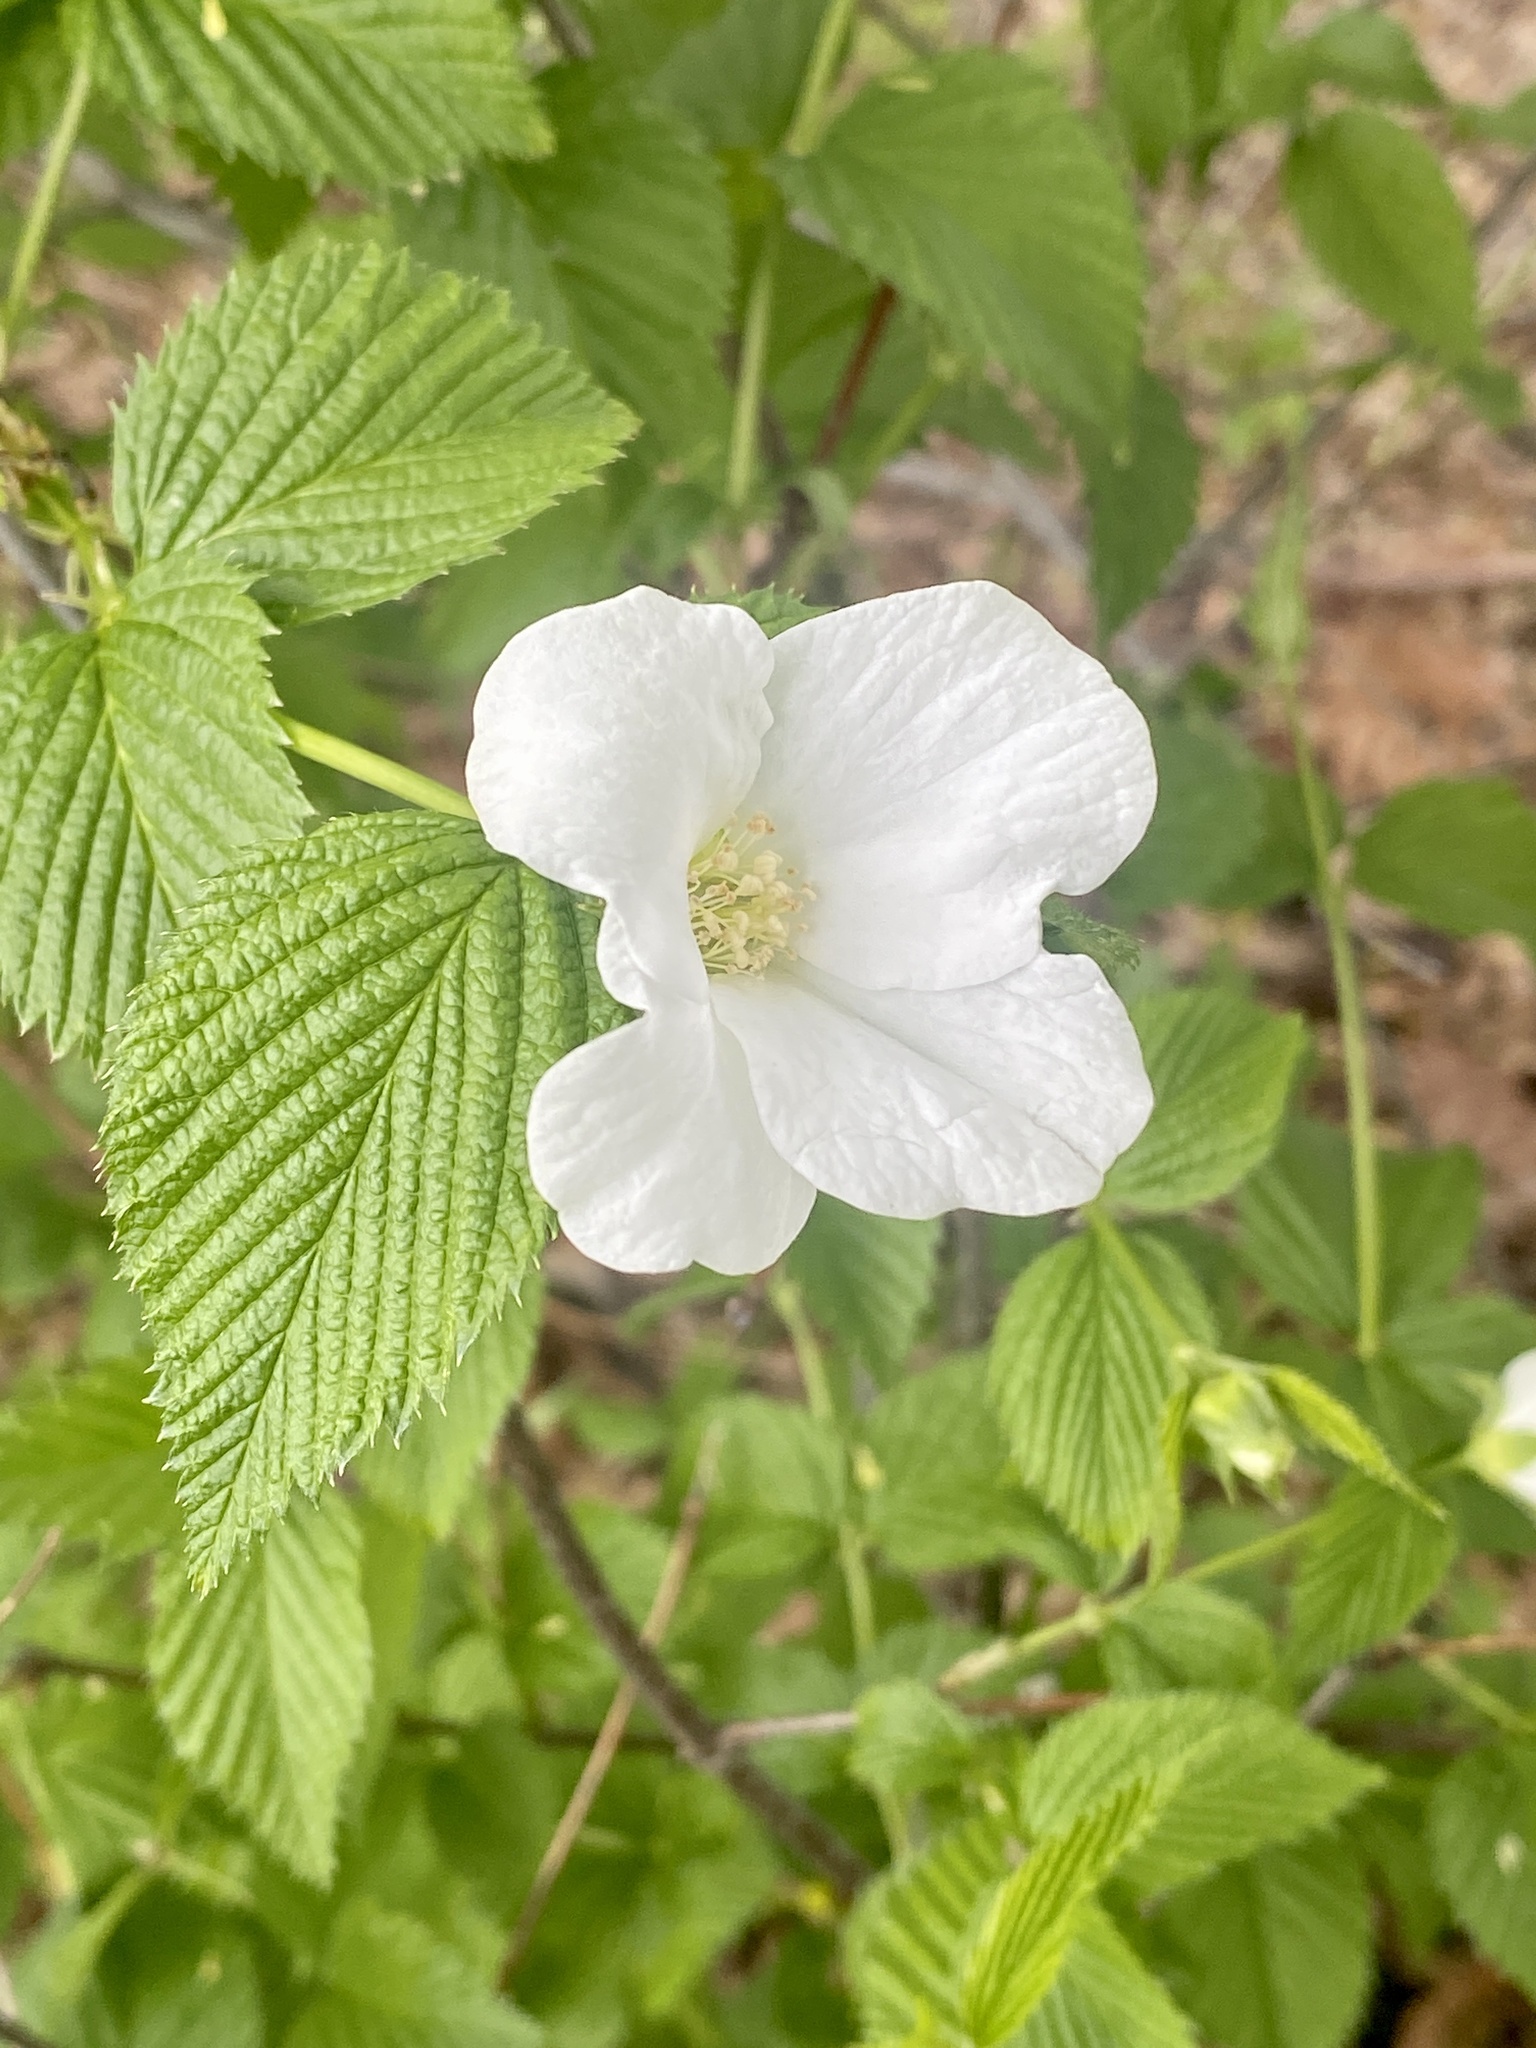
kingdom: Plantae
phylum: Tracheophyta
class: Magnoliopsida
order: Rosales
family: Rosaceae
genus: Rhodotypos
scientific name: Rhodotypos scandens
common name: Jetbead
